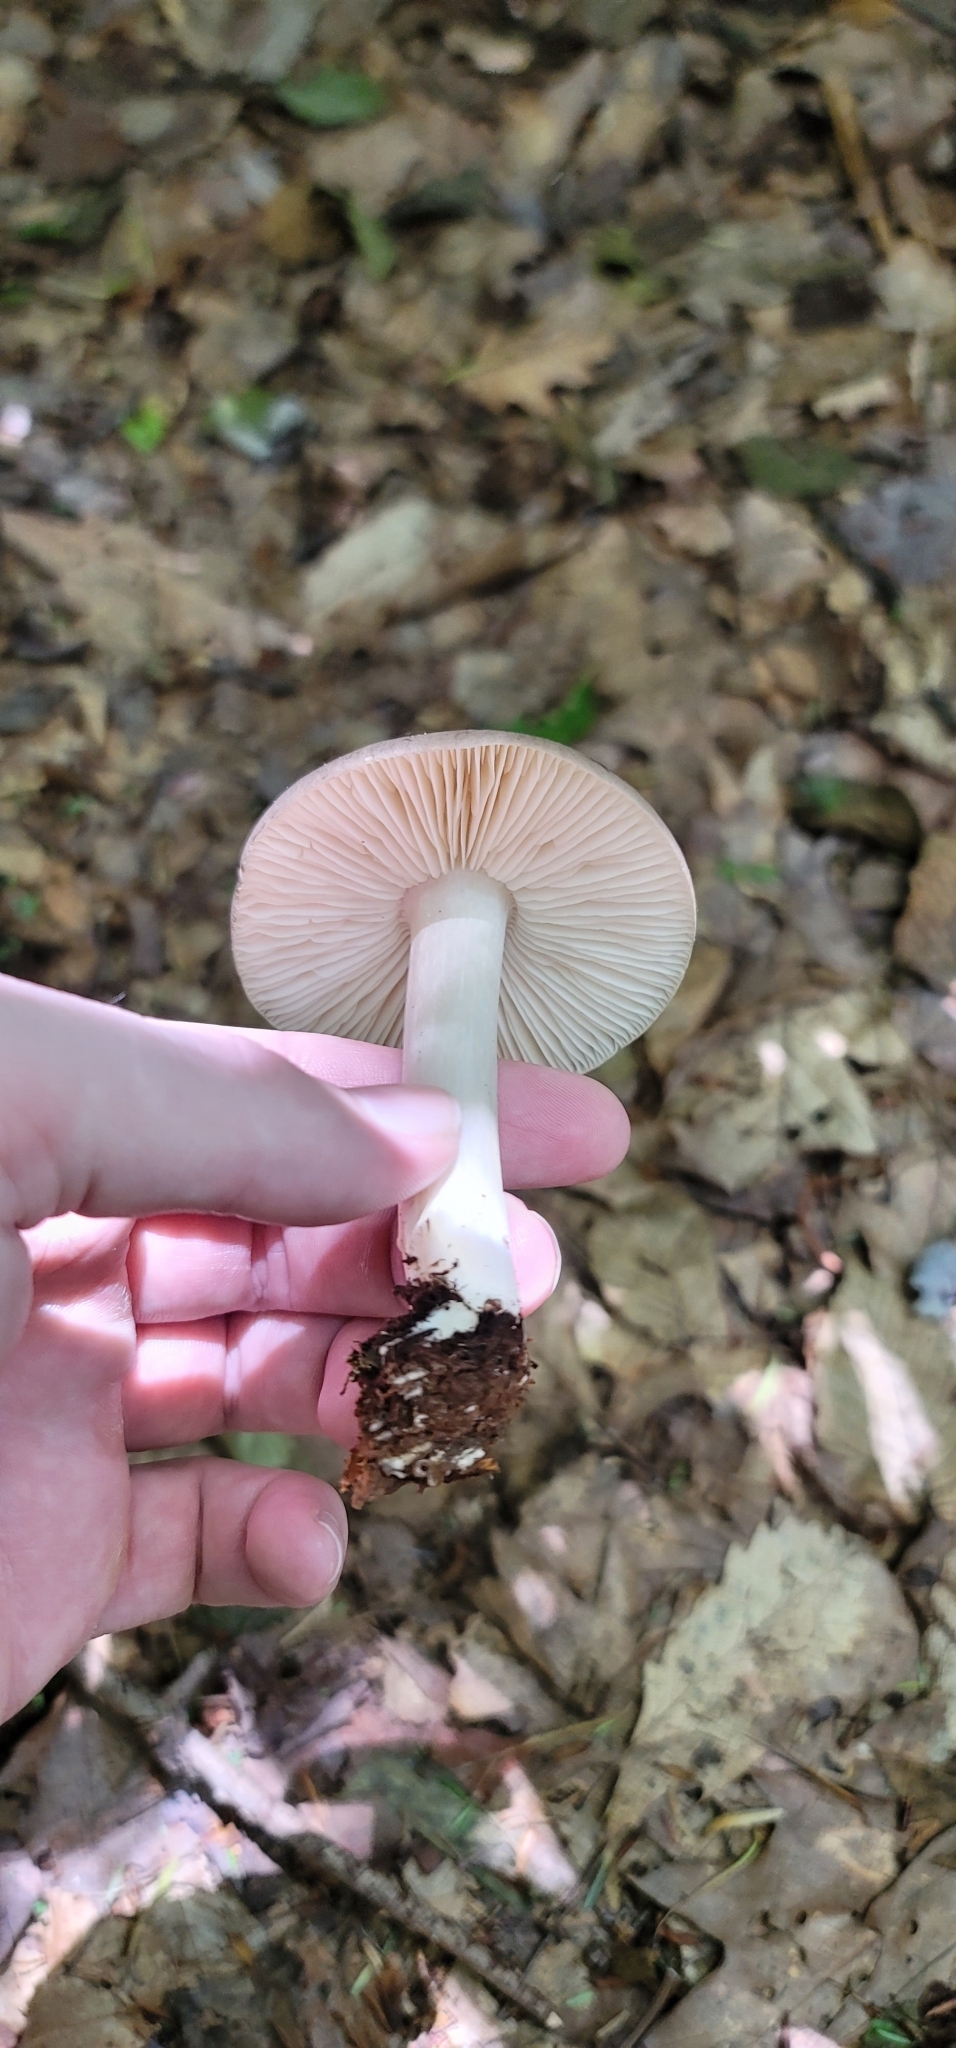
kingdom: Fungi
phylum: Basidiomycota
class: Agaricomycetes
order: Agaricales
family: Tricholomataceae
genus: Megacollybia
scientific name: Megacollybia rodmanii
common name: Eastern american platterful mushroom
